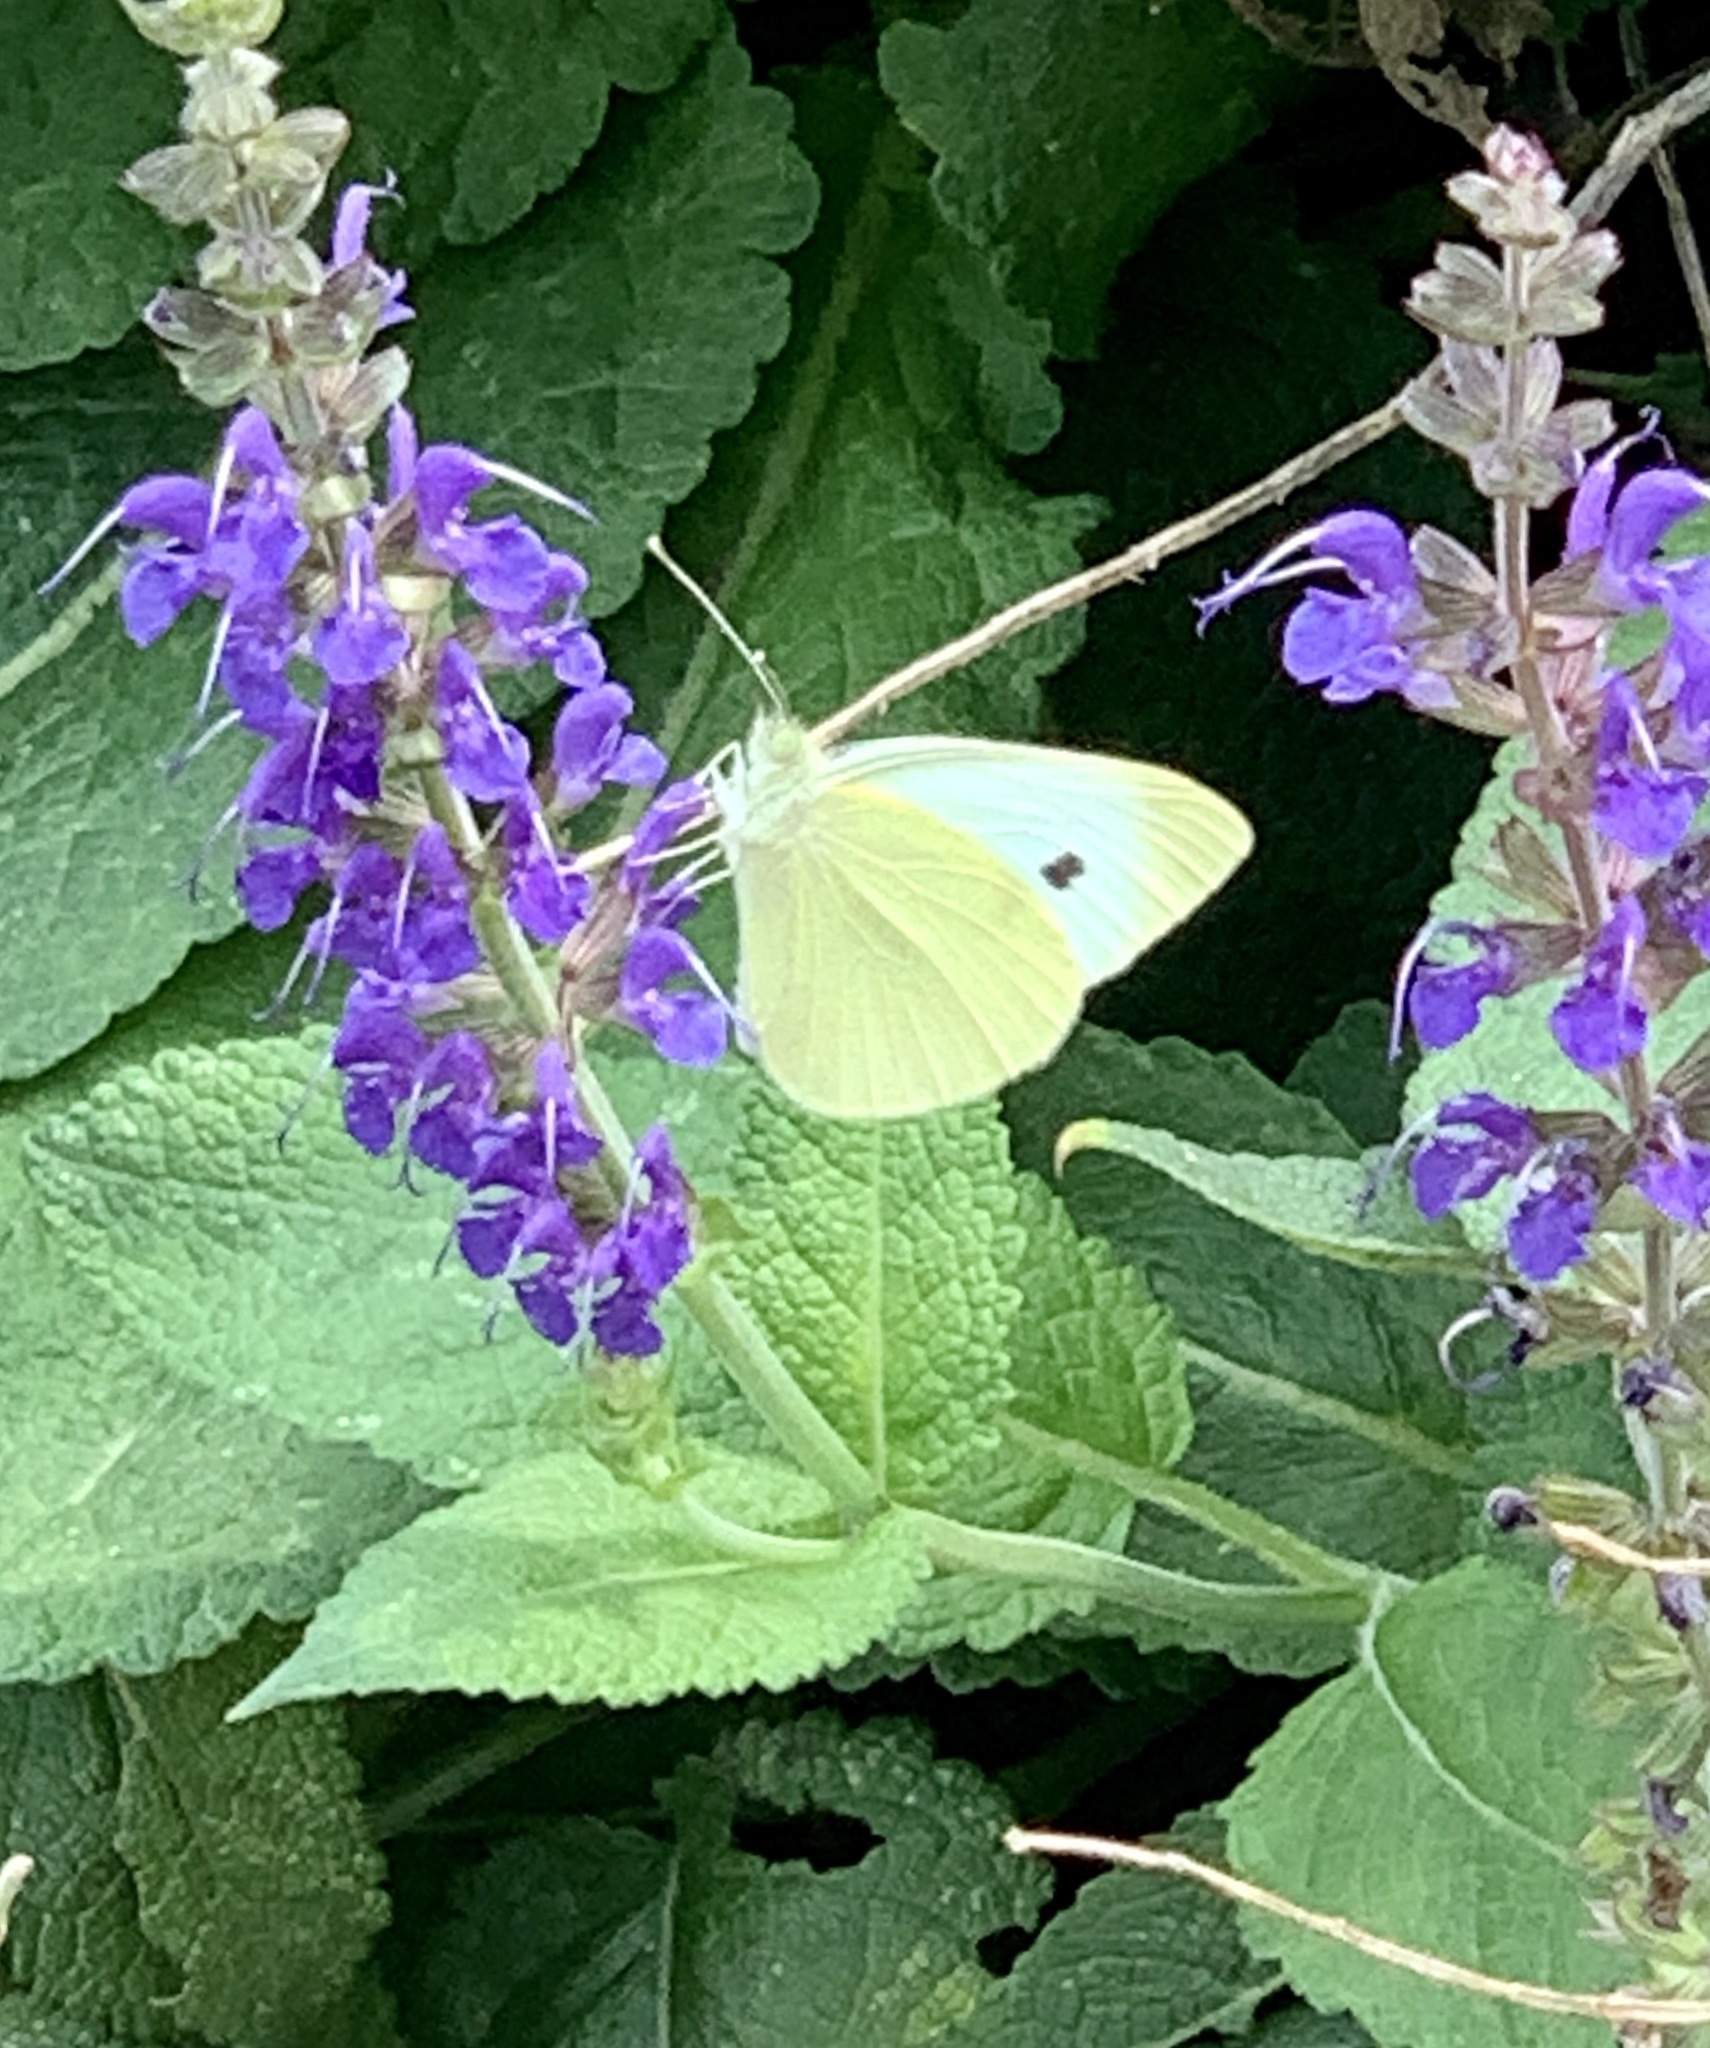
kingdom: Animalia
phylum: Arthropoda
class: Insecta
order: Lepidoptera
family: Pieridae
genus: Pieris
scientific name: Pieris rapae
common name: Small white
